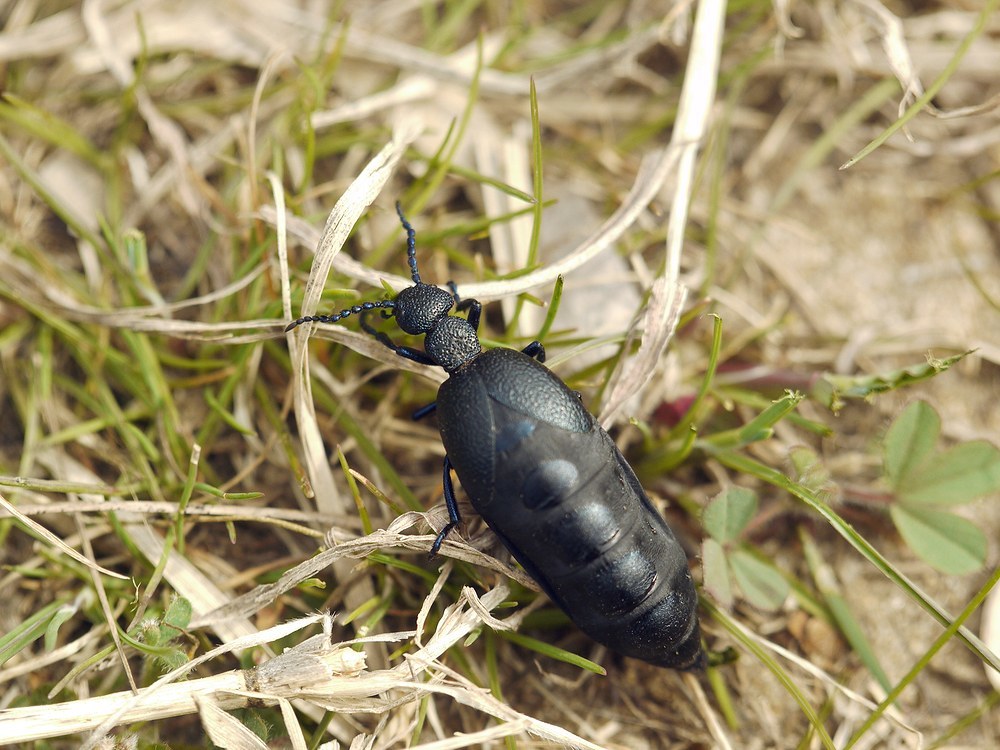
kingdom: Animalia
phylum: Arthropoda
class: Insecta
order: Coleoptera
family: Meloidae
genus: Meloe
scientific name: Meloe proscarabaeus
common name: Black oil-beetle
